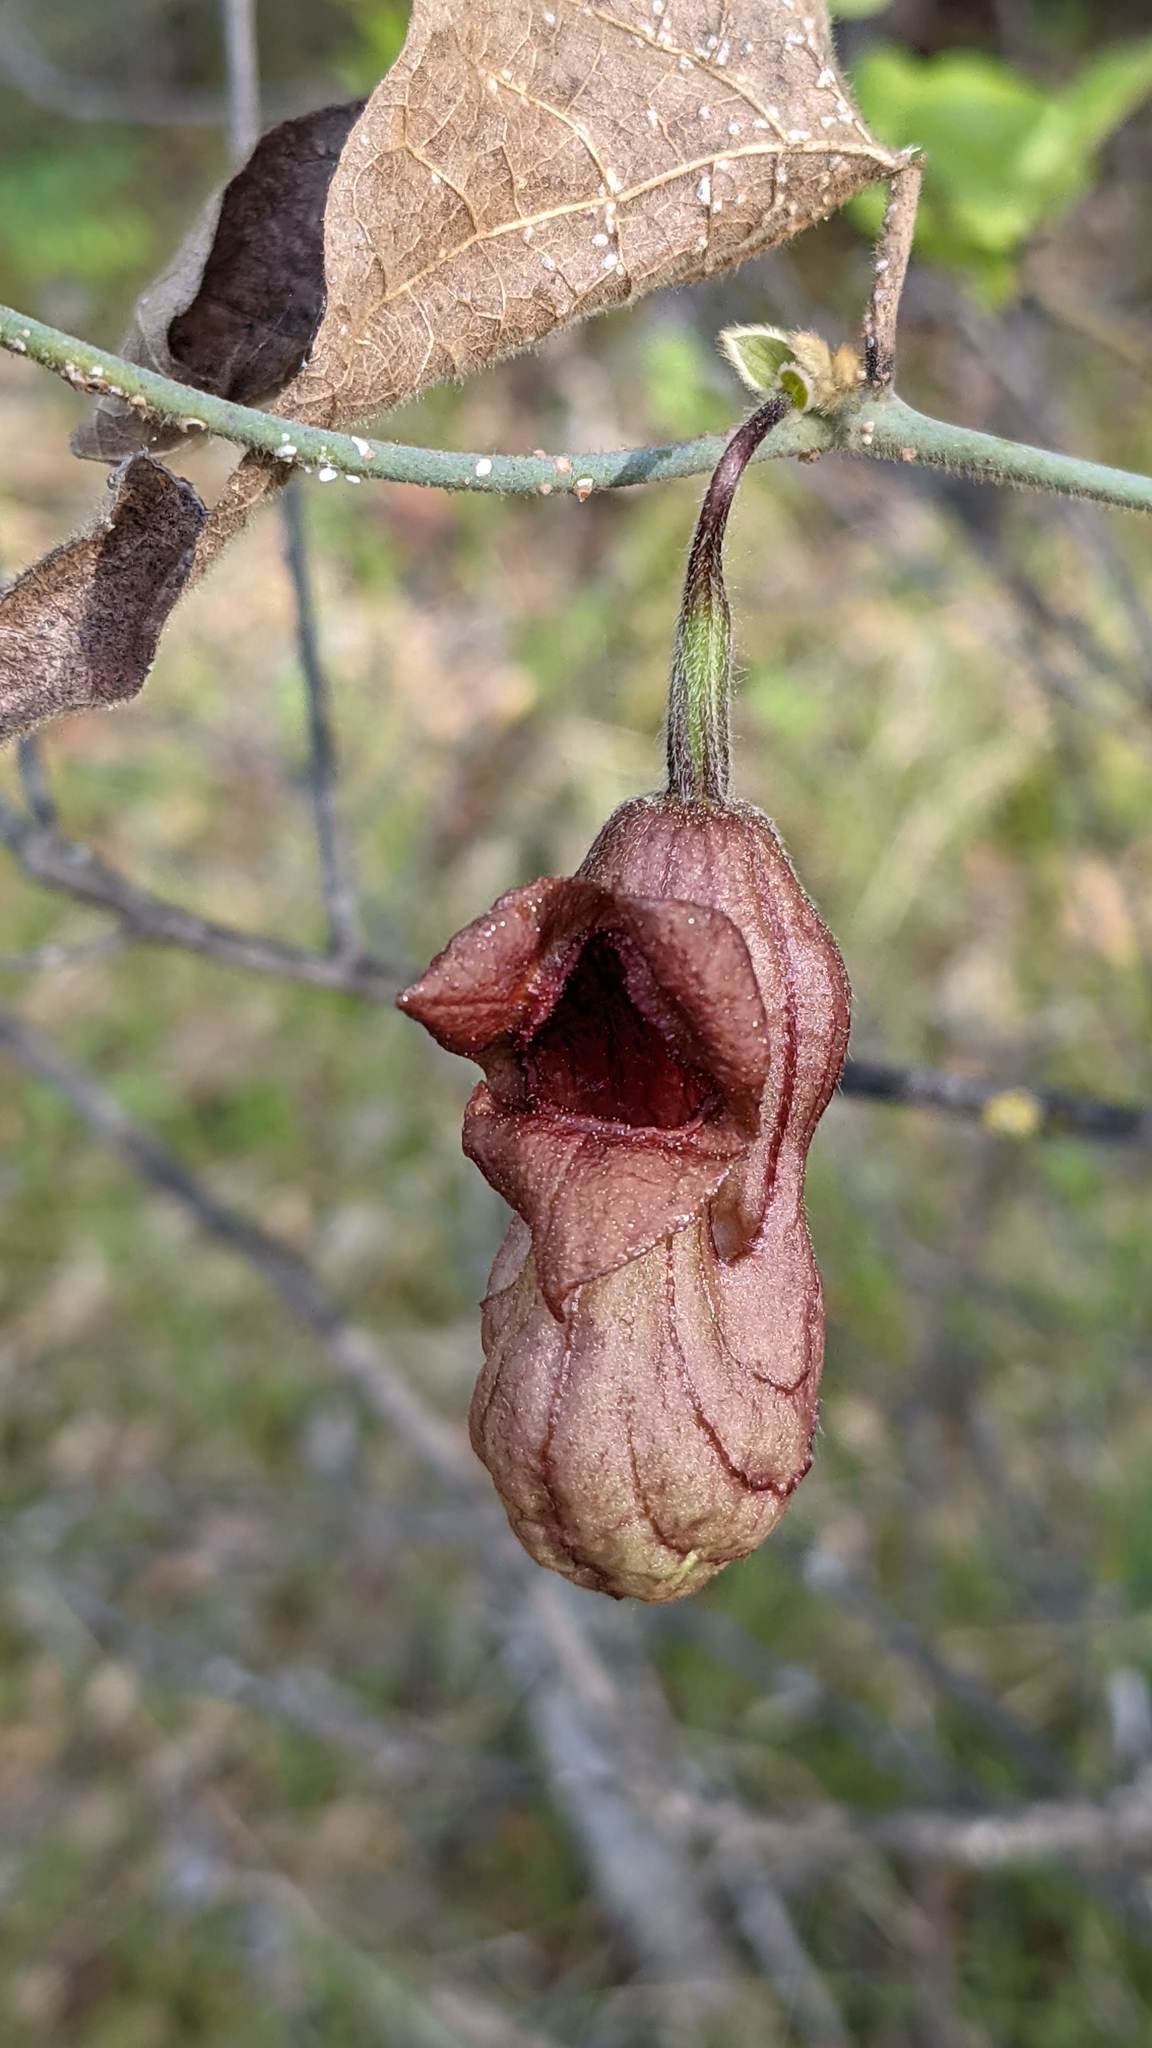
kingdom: Plantae
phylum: Tracheophyta
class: Magnoliopsida
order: Piperales
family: Aristolochiaceae
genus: Isotrema
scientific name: Isotrema californicum
